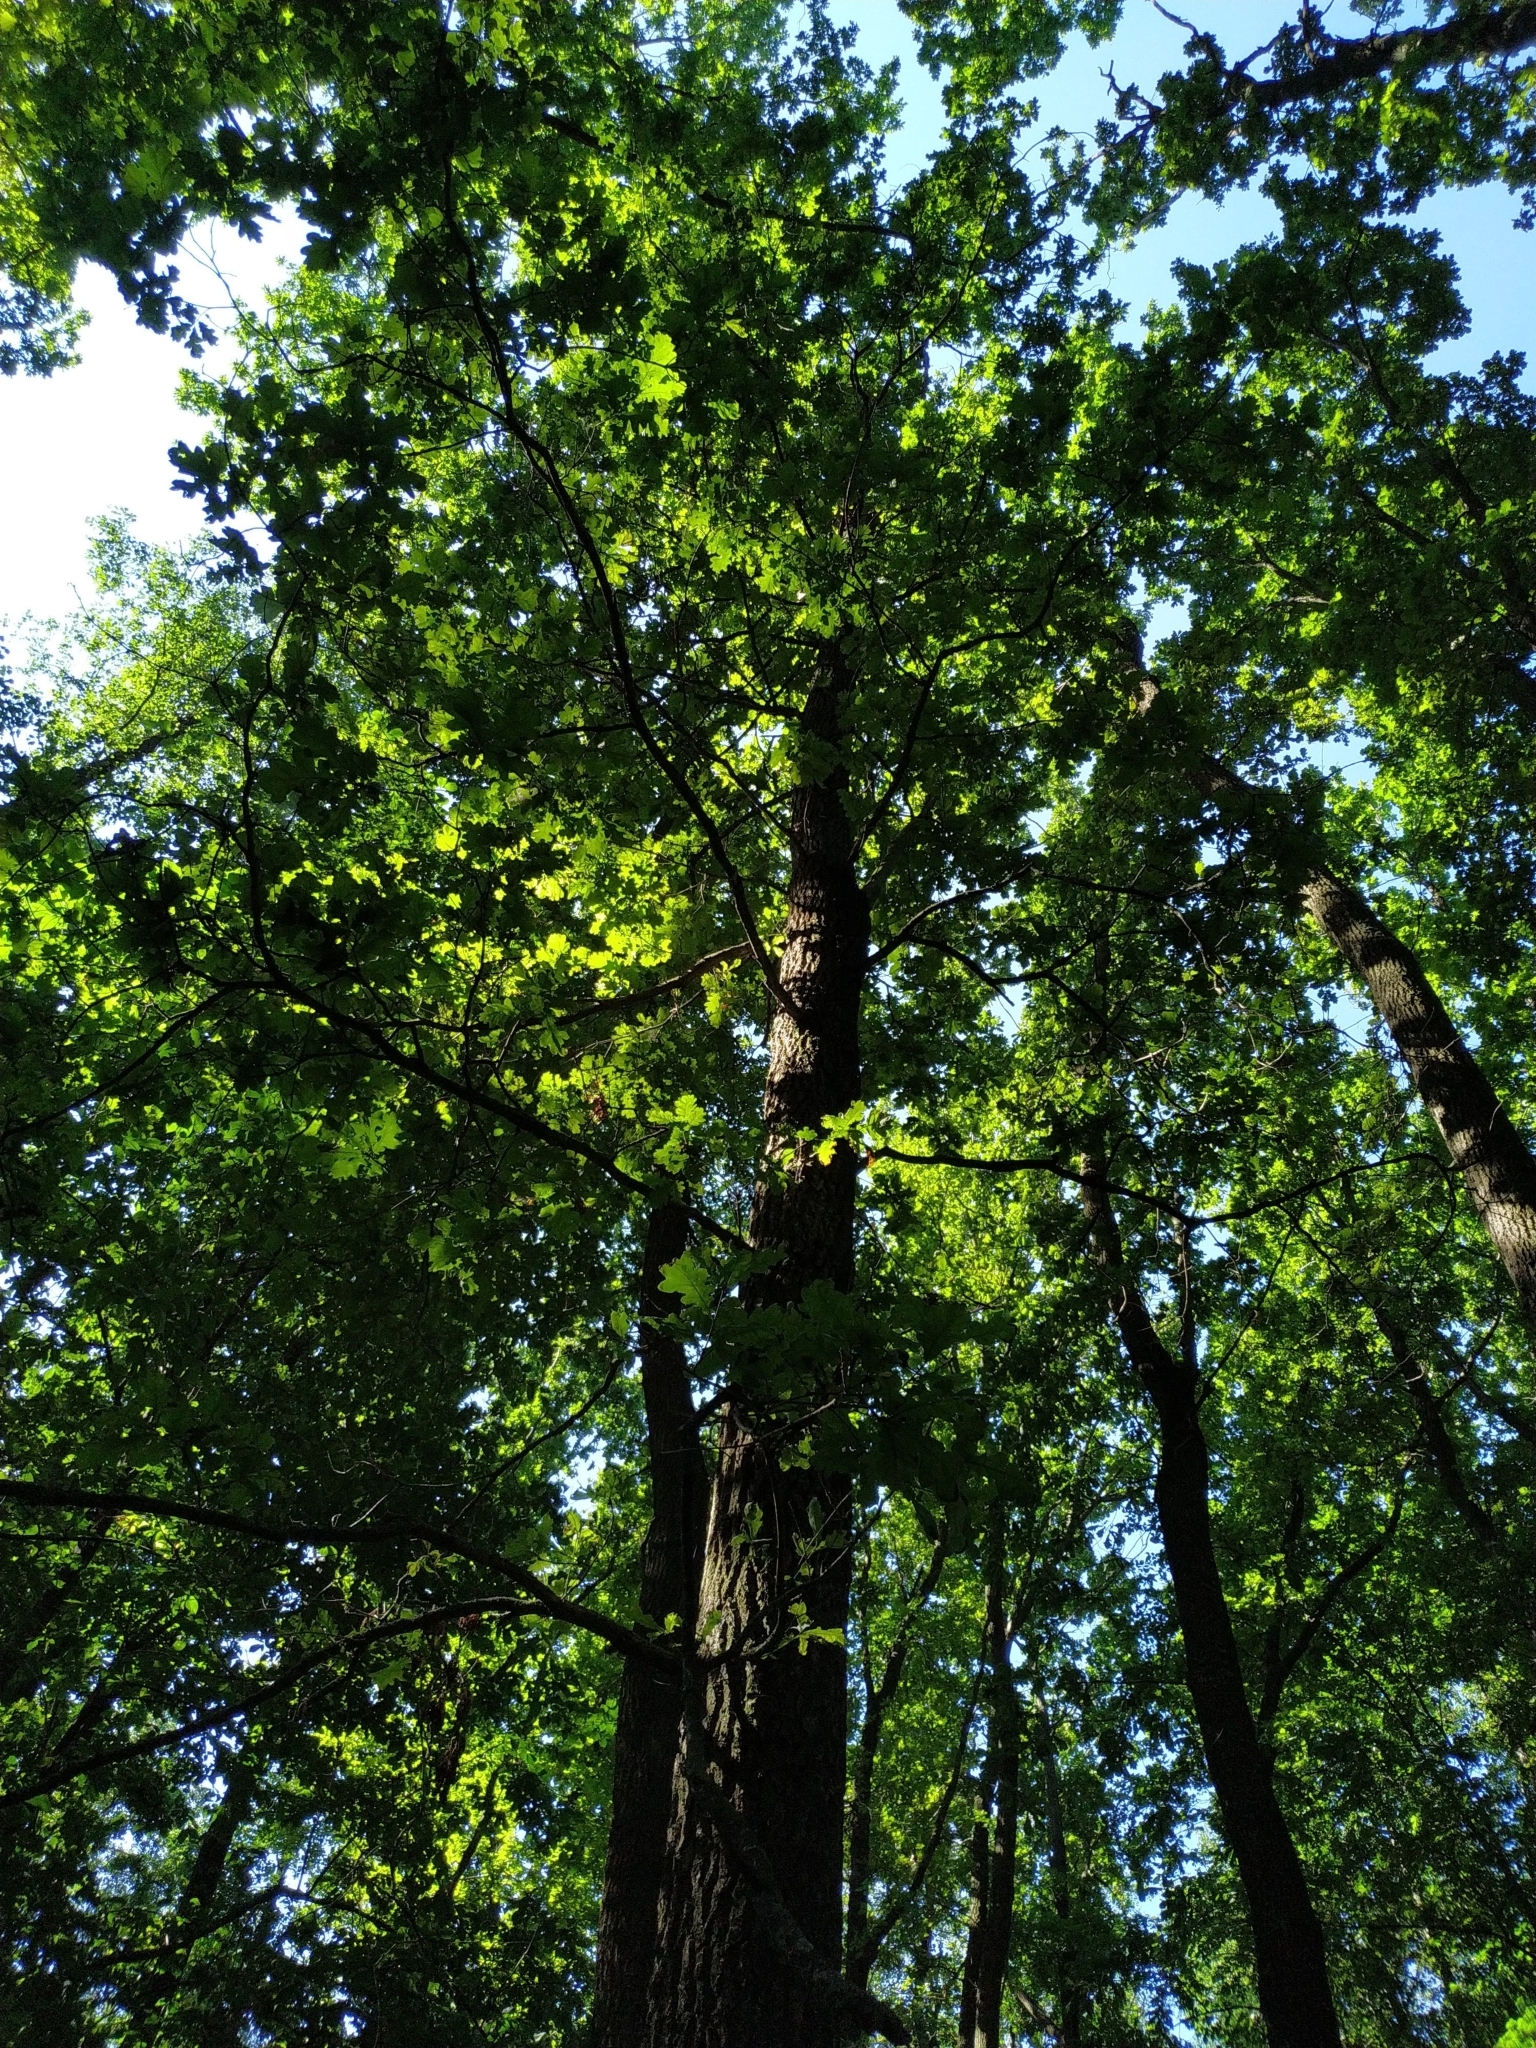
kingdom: Plantae
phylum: Tracheophyta
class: Magnoliopsida
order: Fagales
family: Fagaceae
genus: Quercus
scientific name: Quercus robur
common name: Pedunculate oak
